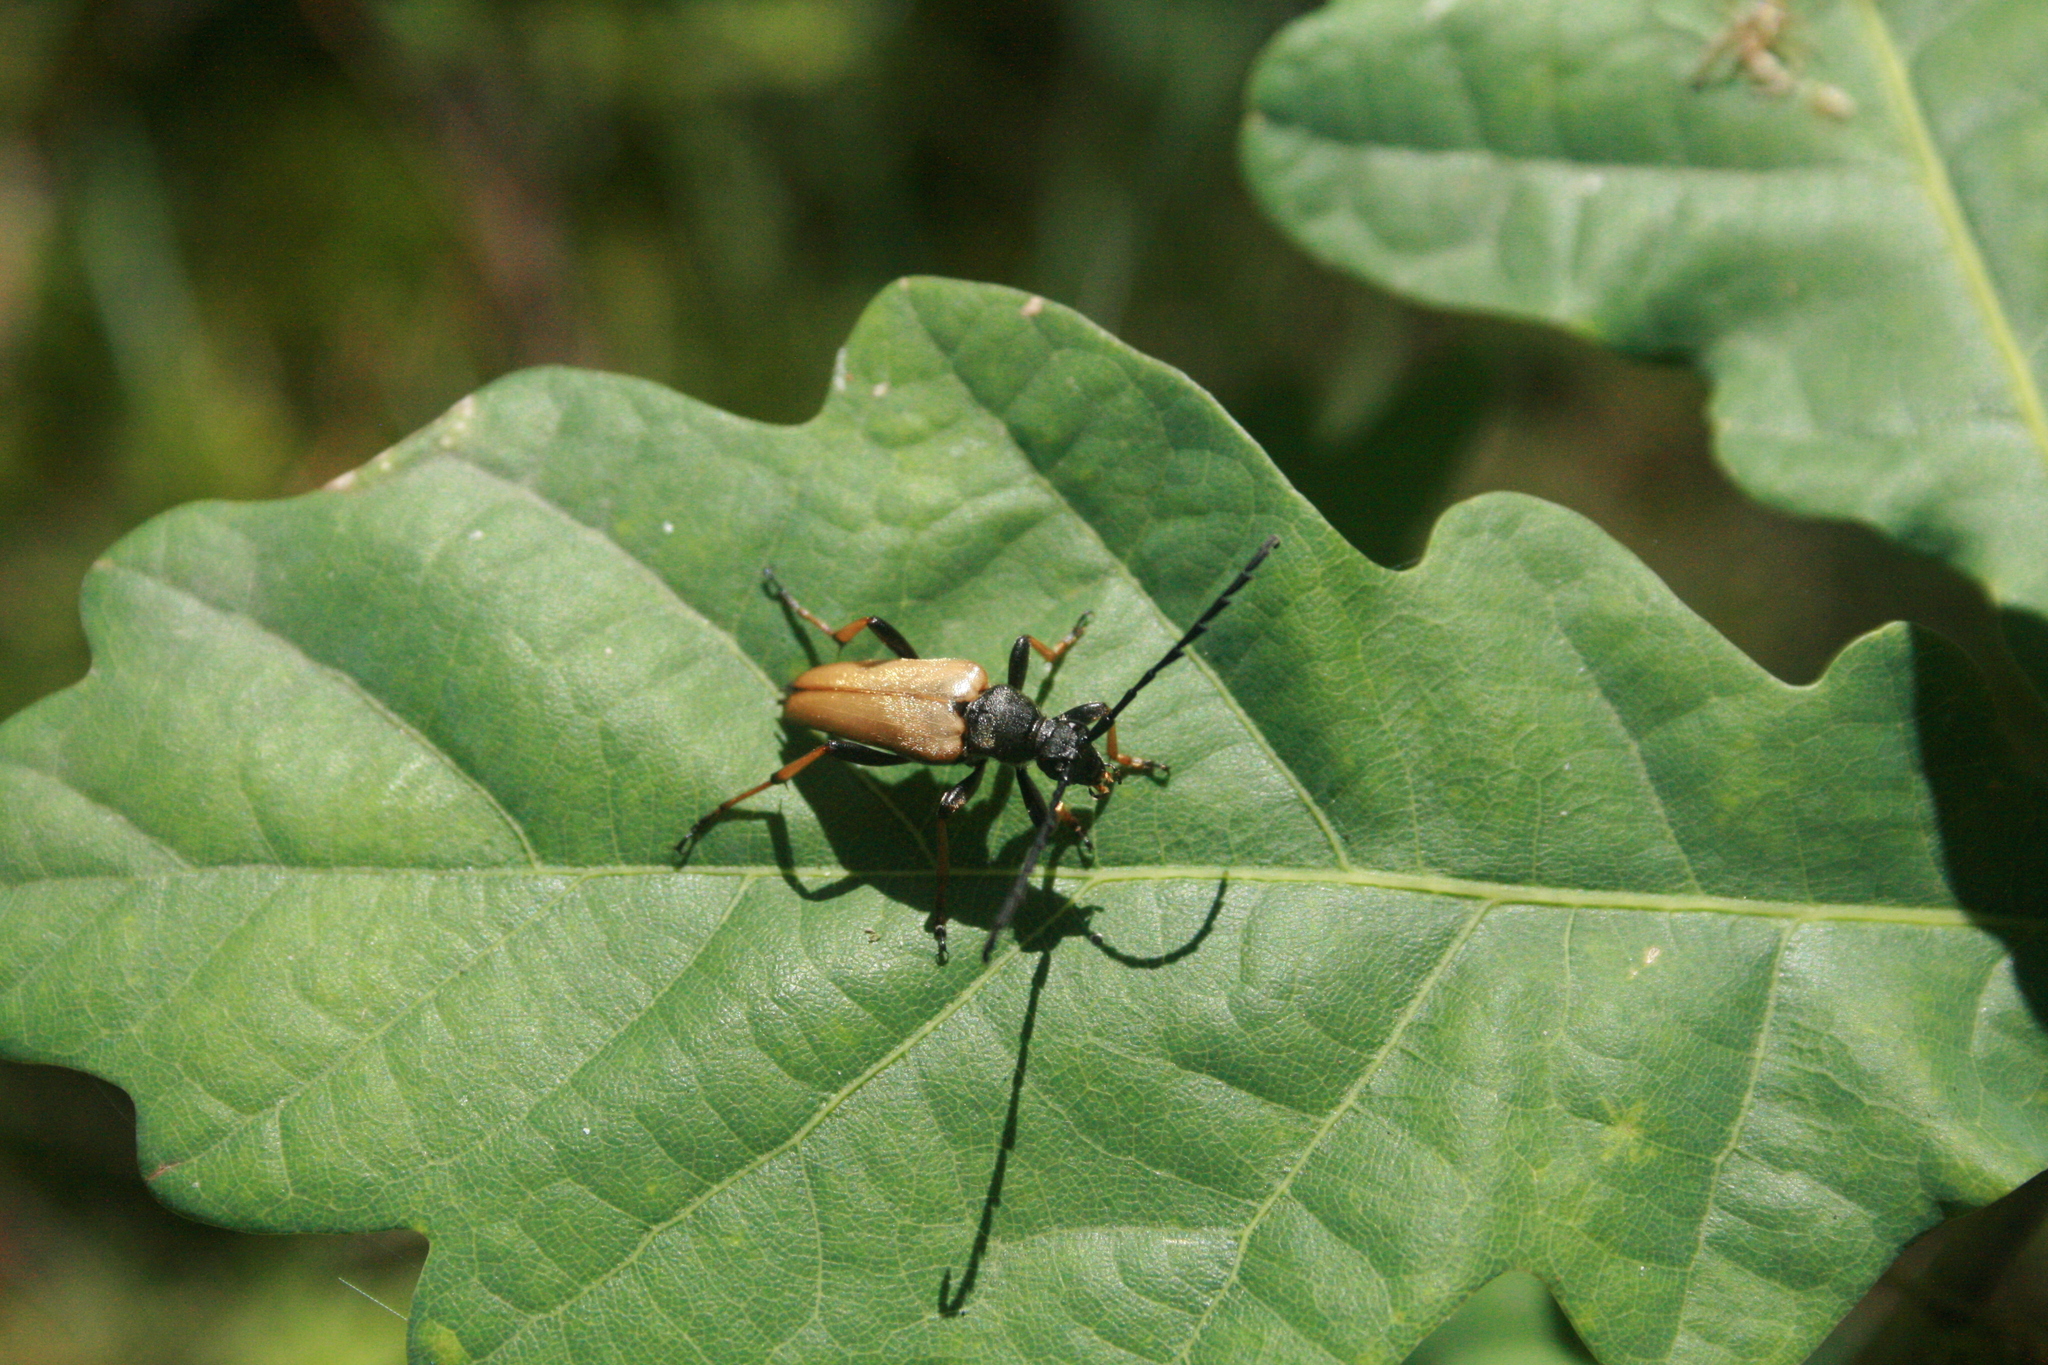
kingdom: Animalia
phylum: Arthropoda
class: Insecta
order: Coleoptera
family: Cerambycidae
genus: Stictoleptura
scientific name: Stictoleptura rubra
